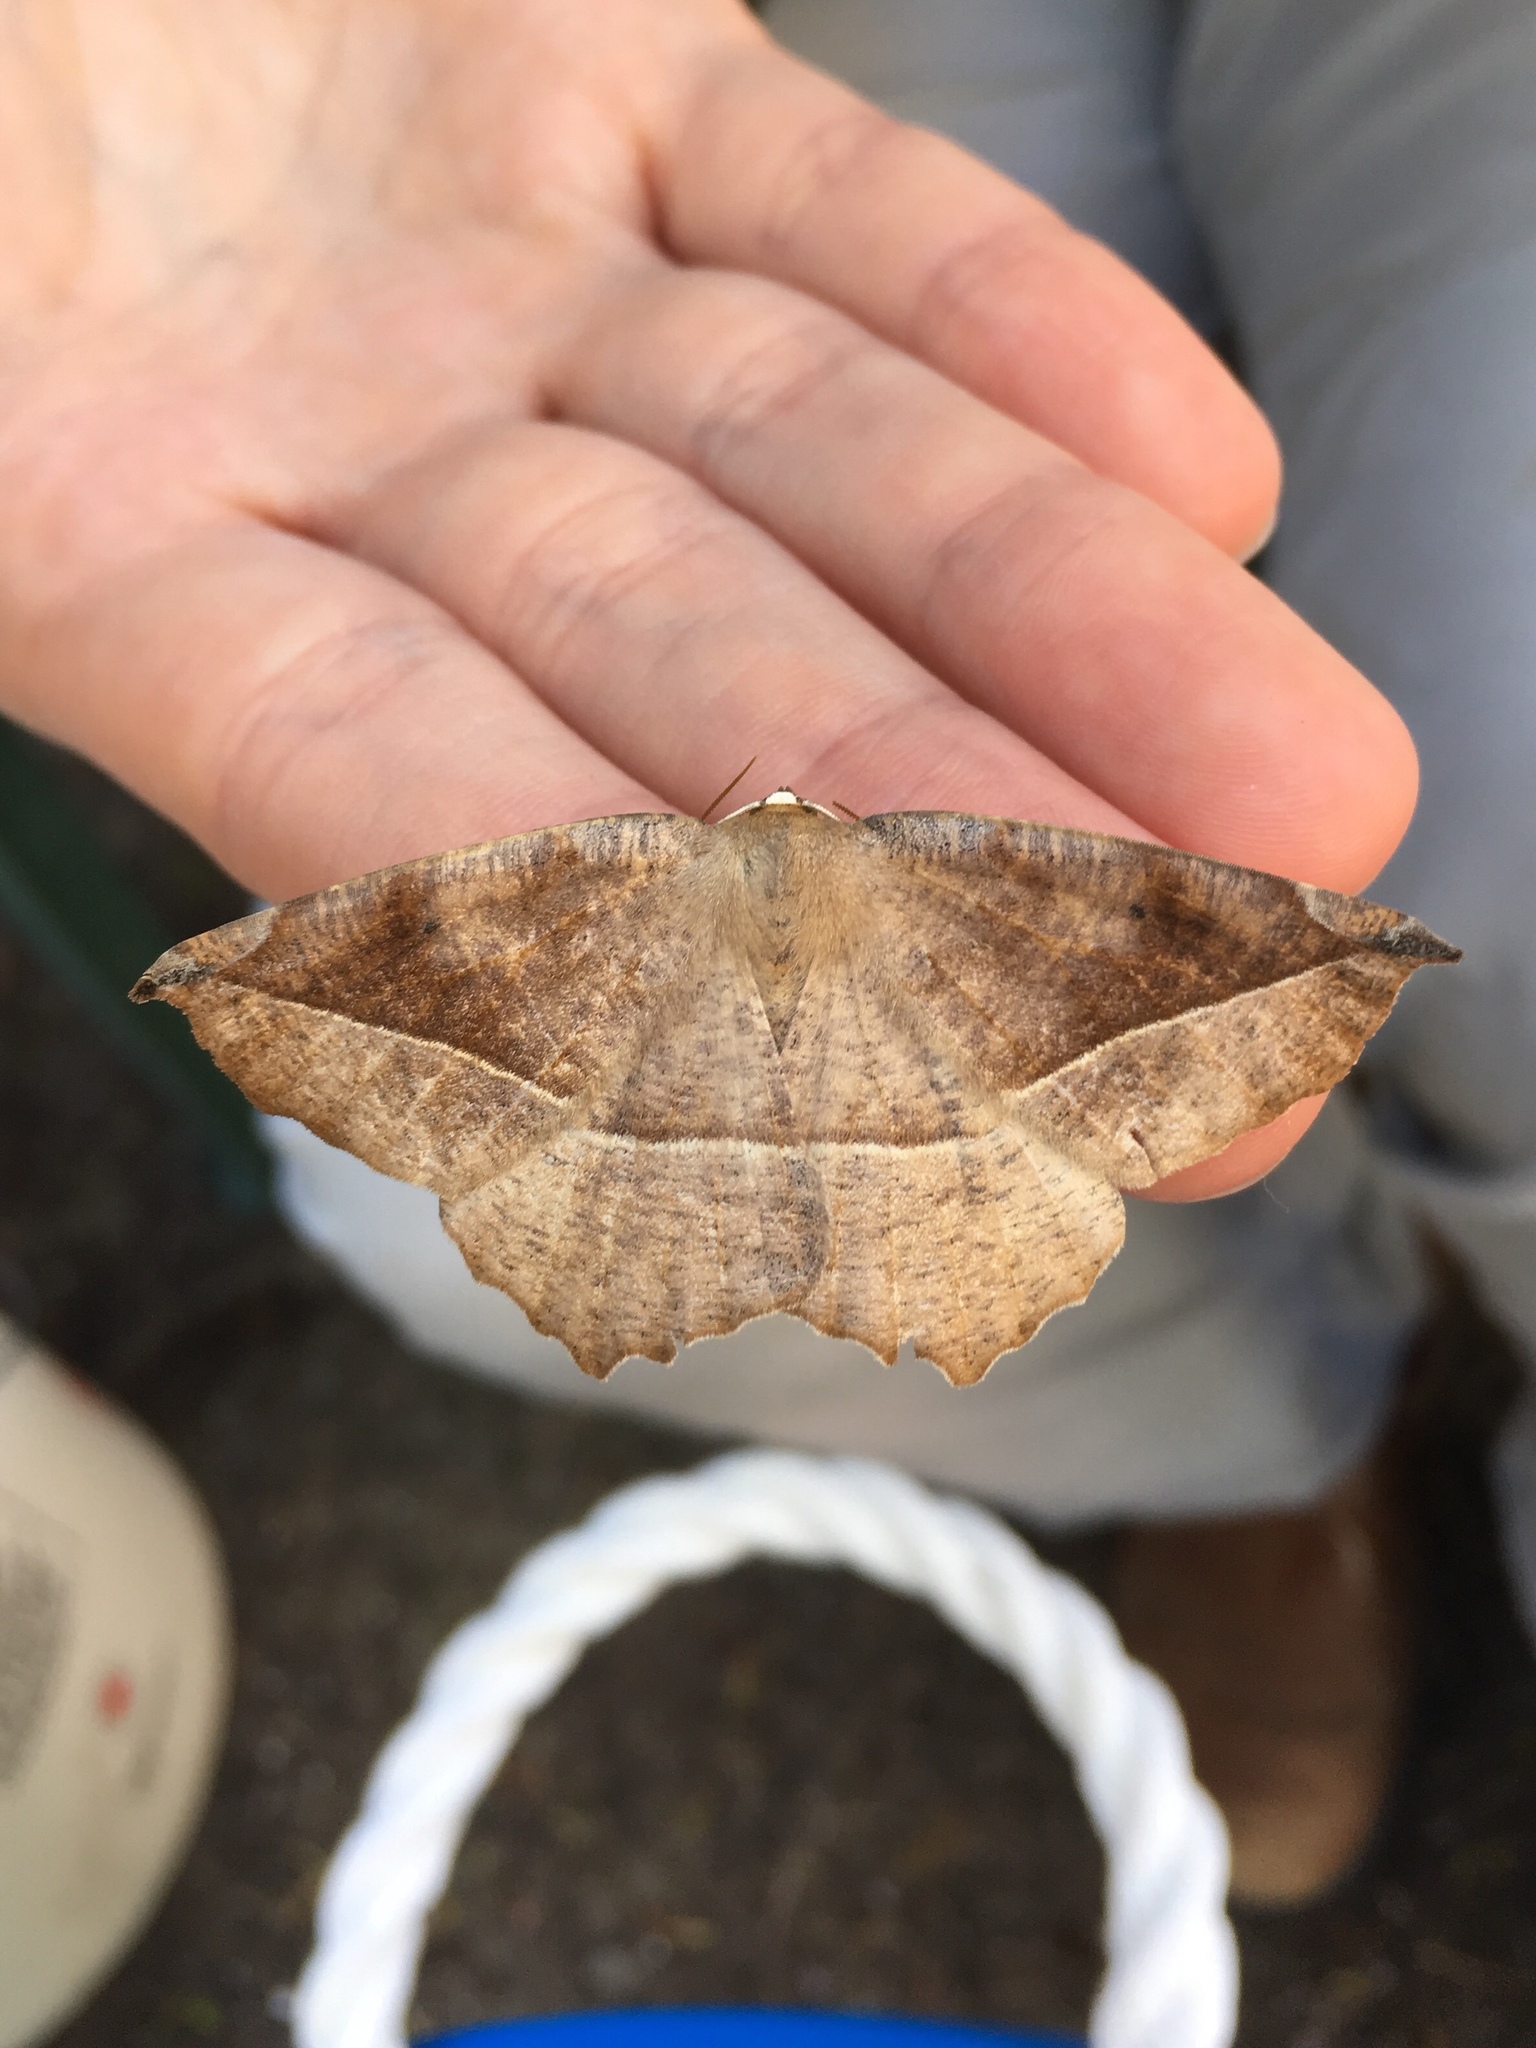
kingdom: Animalia
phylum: Arthropoda
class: Insecta
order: Lepidoptera
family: Geometridae
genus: Eutrapela
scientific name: Eutrapela clemataria
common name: Curved-toothed geometer
